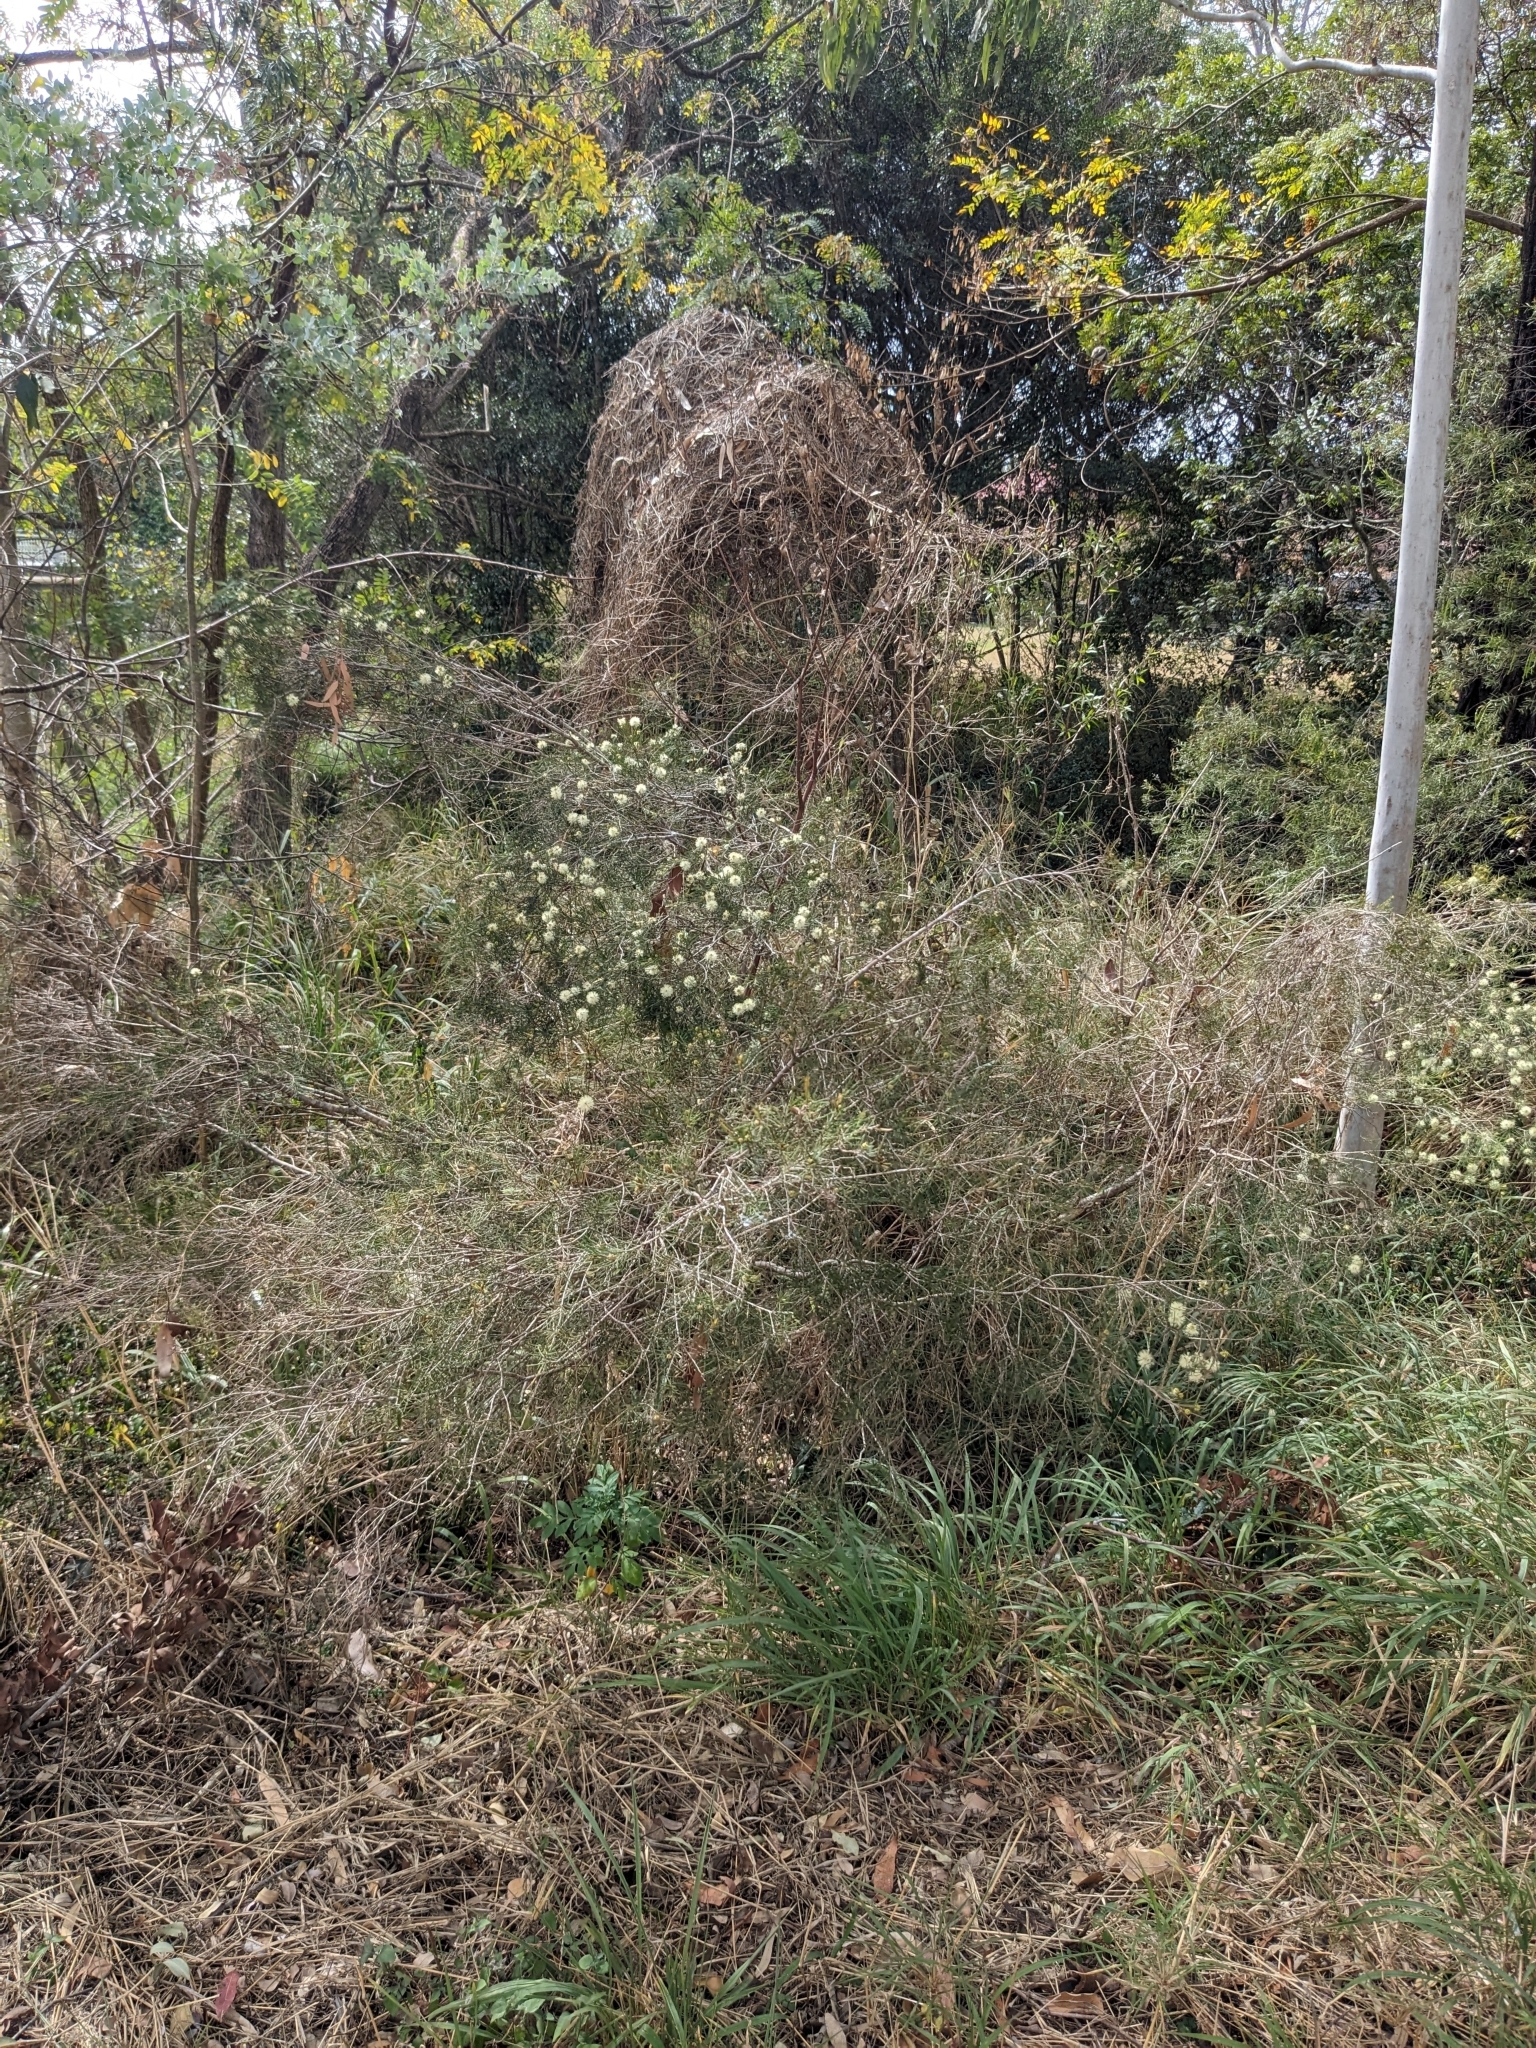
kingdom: Plantae
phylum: Tracheophyta
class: Magnoliopsida
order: Myrtales
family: Myrtaceae
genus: Melaleuca
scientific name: Melaleuca nodosa
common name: Prickly-leaf paperbark
